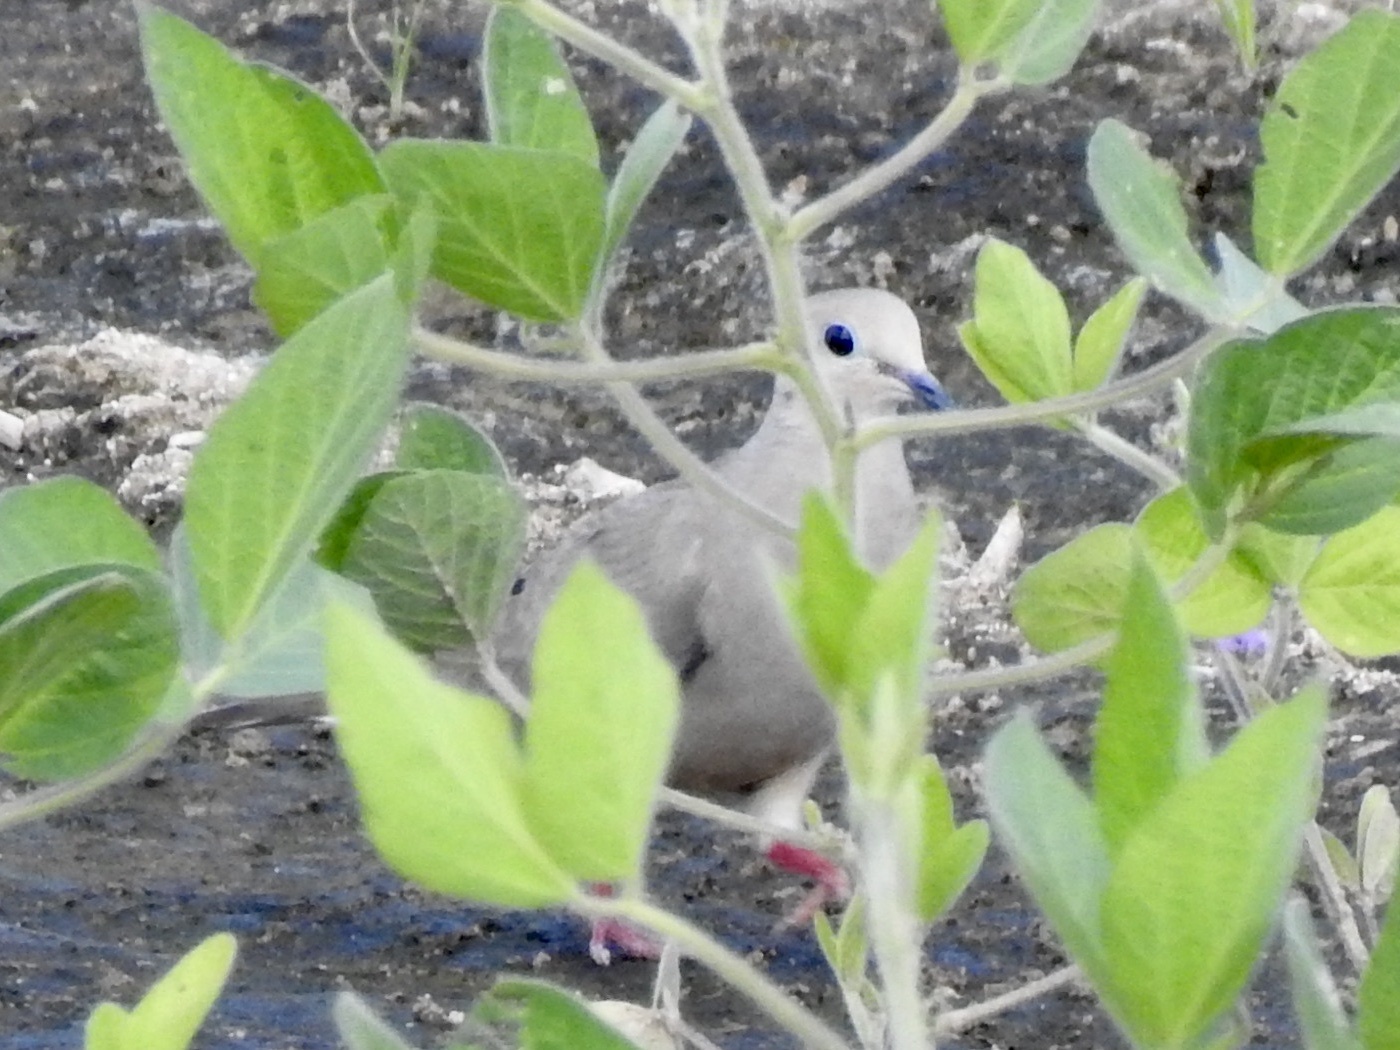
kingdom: Animalia
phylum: Chordata
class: Aves
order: Columbiformes
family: Columbidae
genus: Zenaida
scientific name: Zenaida macroura
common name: Mourning dove
